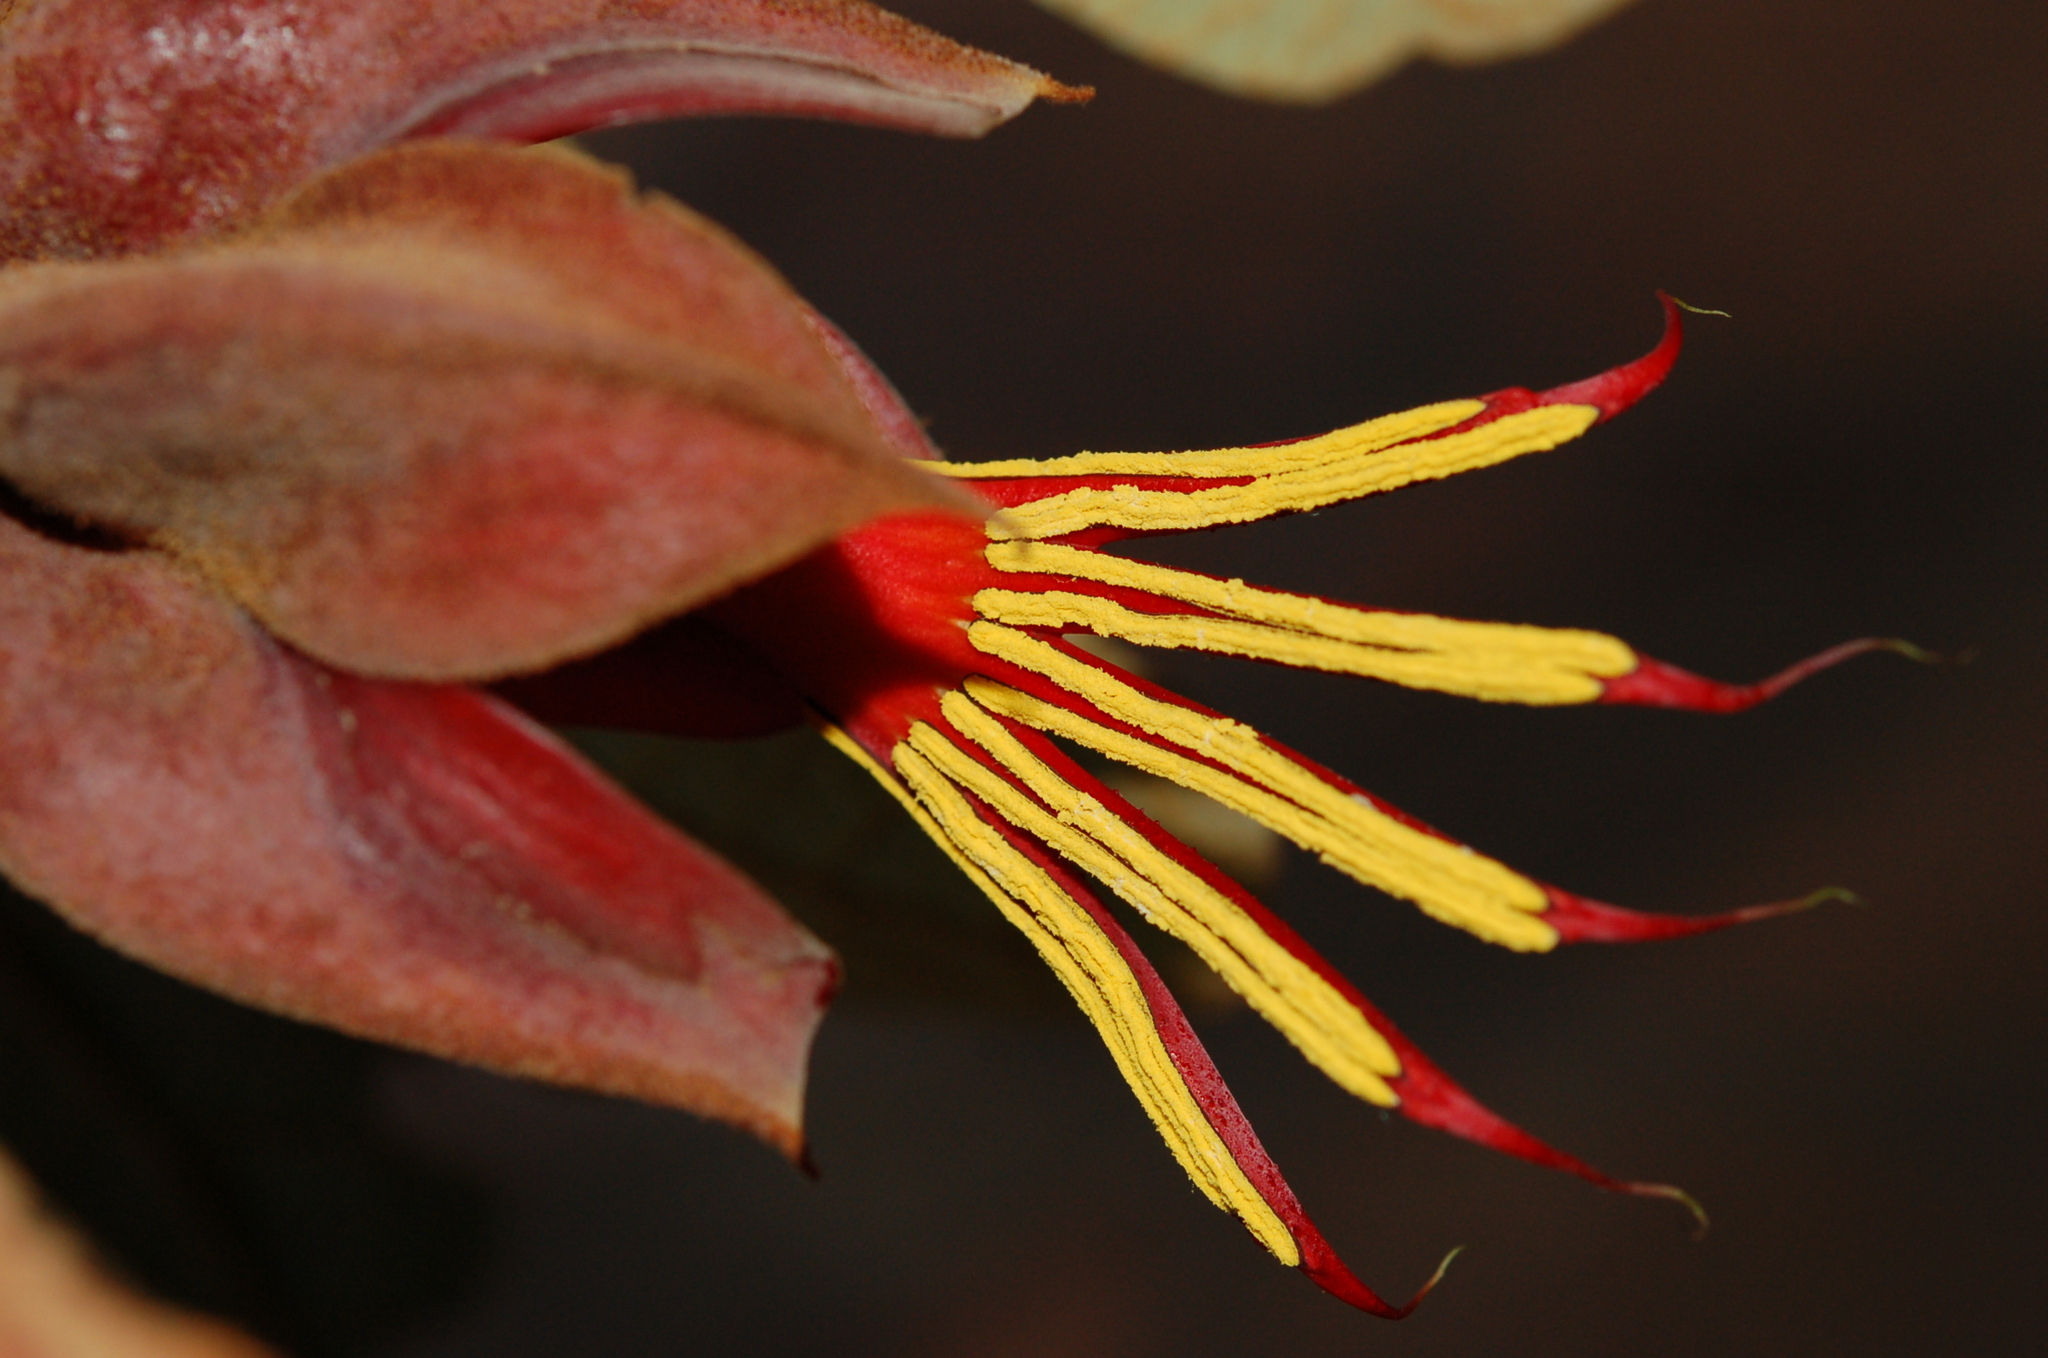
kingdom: Plantae
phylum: Tracheophyta
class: Magnoliopsida
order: Malvales
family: Malvaceae
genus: Chiranthodendron
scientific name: Chiranthodendron pentadactylon
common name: Mexican-hat-plant
